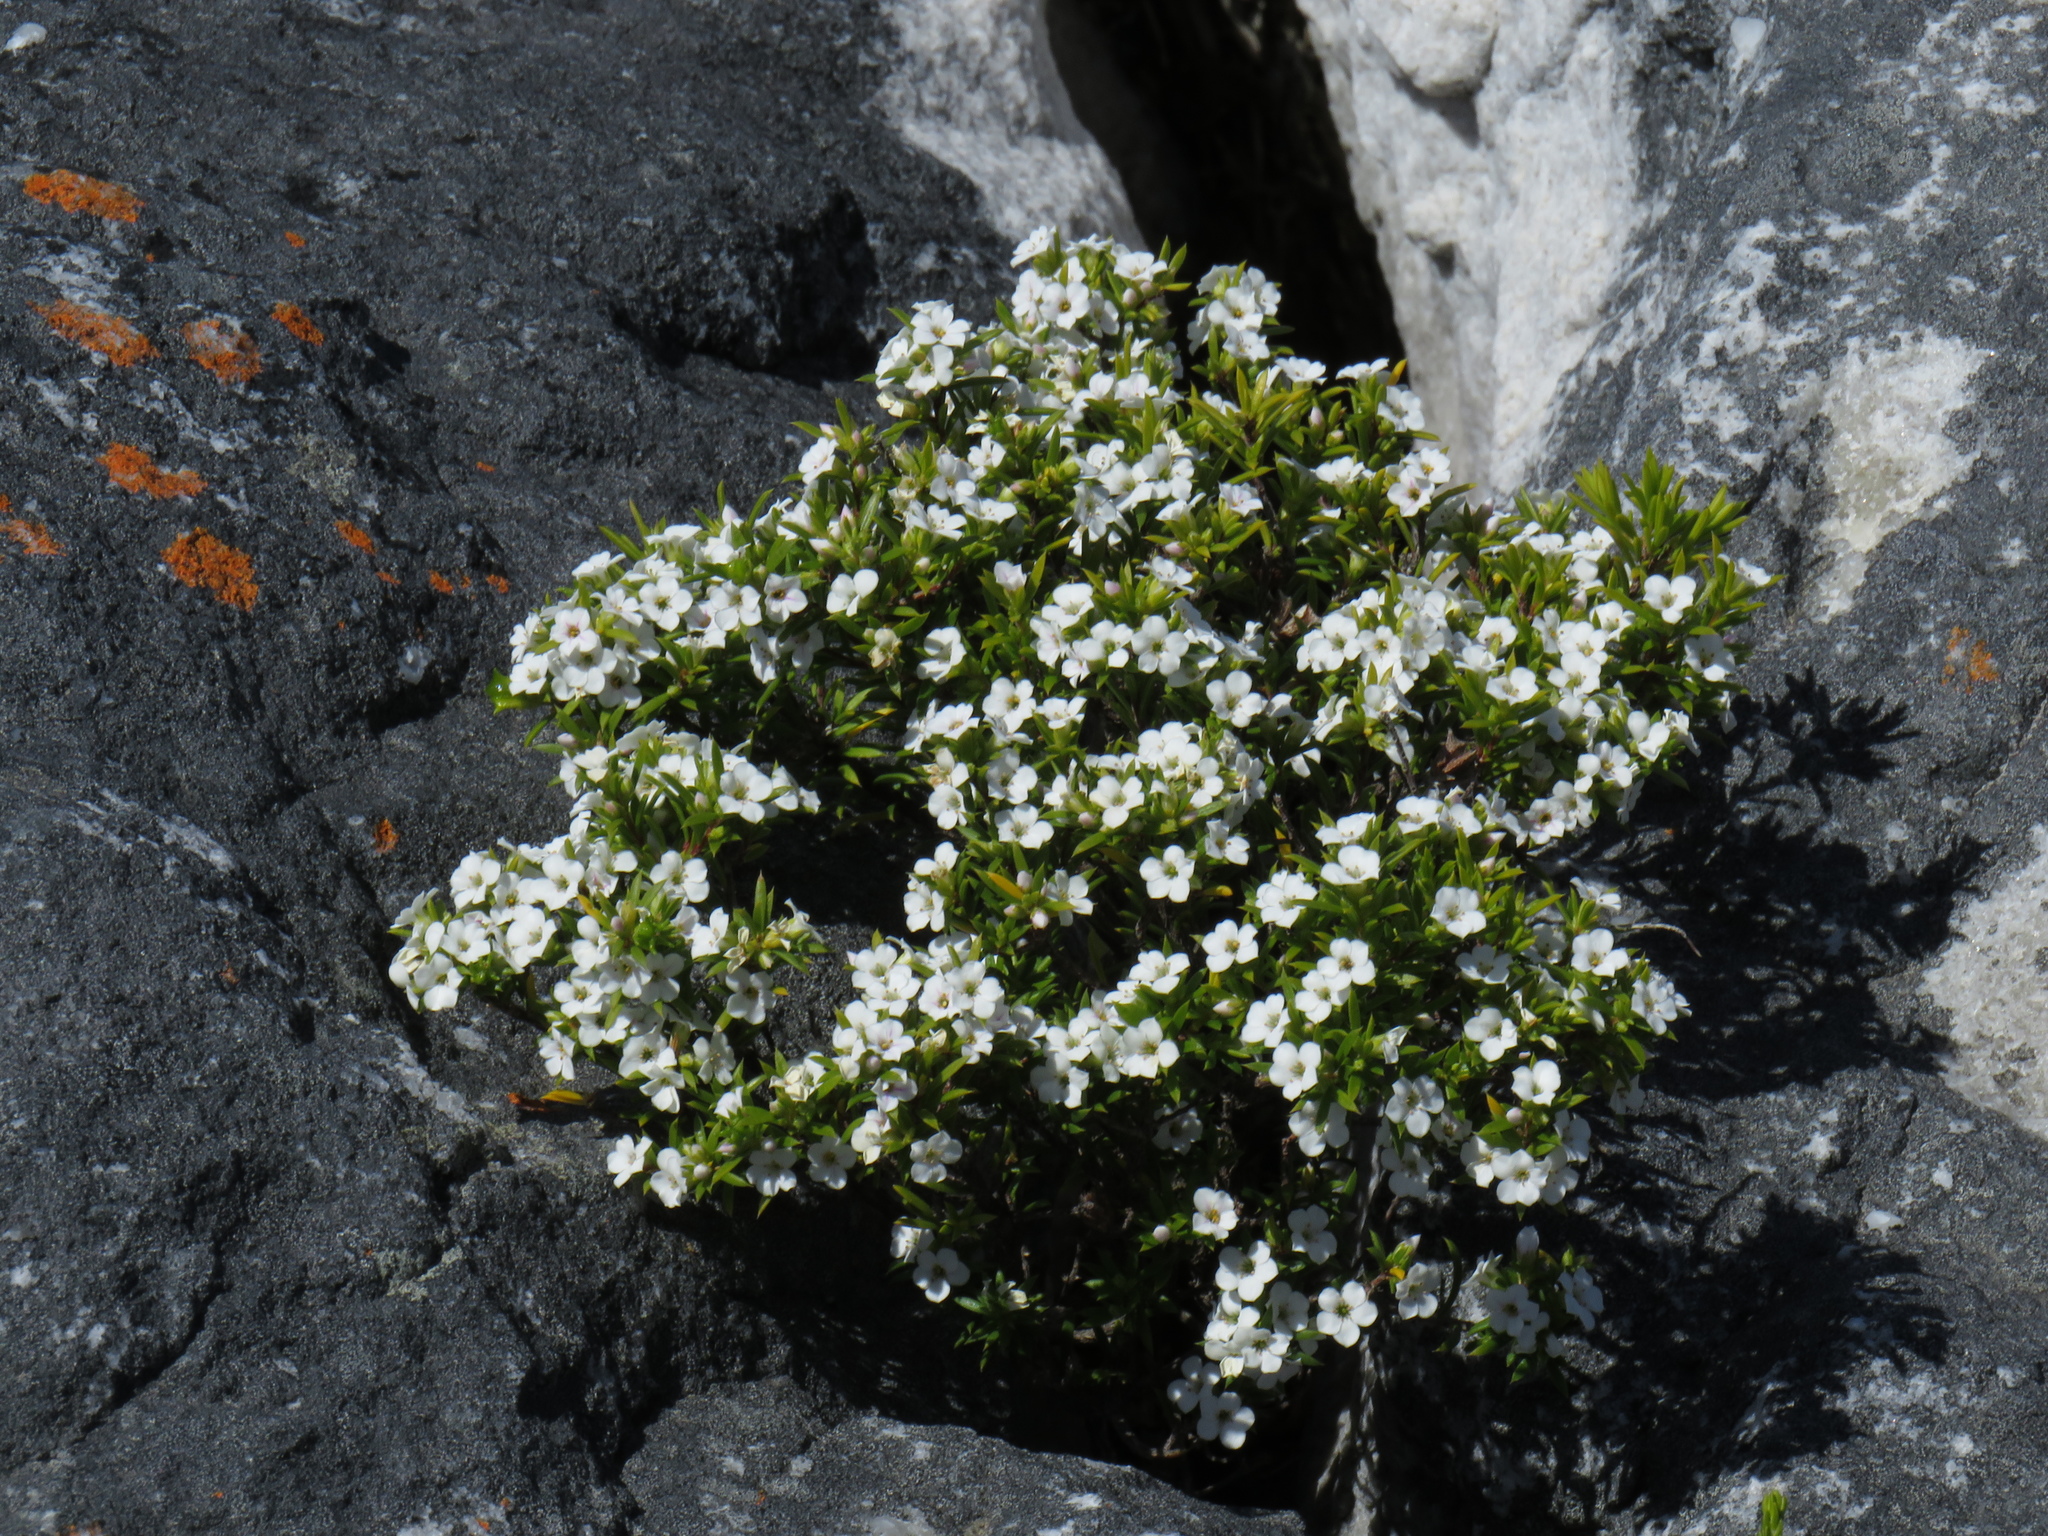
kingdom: Plantae
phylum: Tracheophyta
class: Magnoliopsida
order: Sapindales
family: Rutaceae
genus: Coleonema
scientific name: Coleonema album
